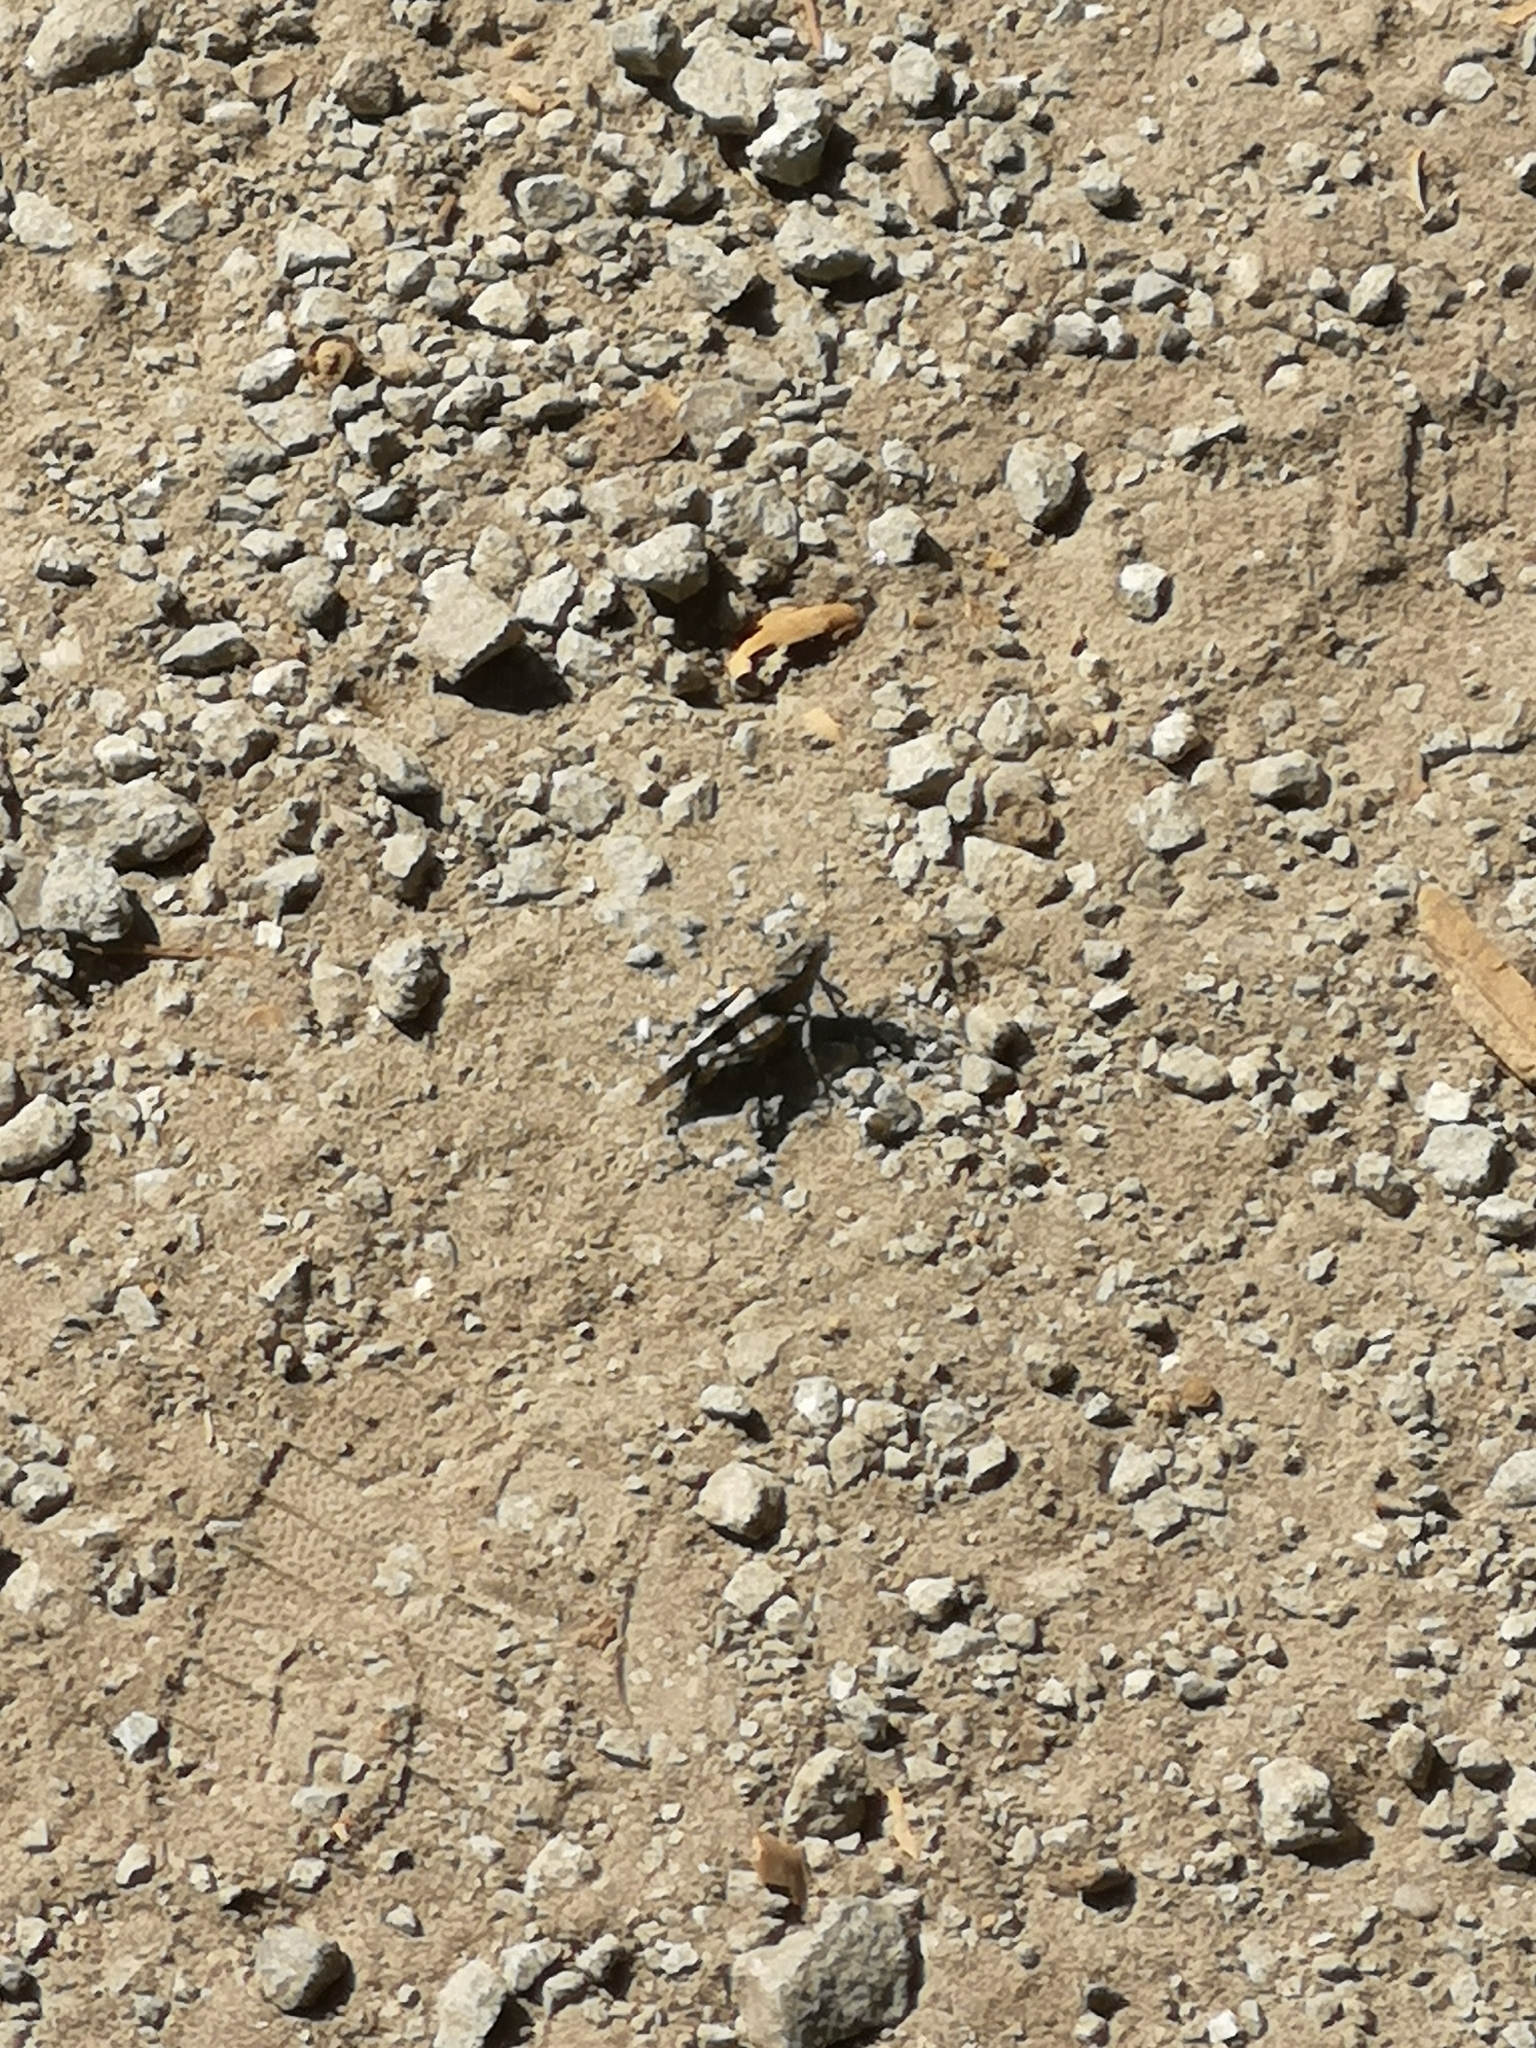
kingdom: Animalia
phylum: Arthropoda
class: Insecta
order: Orthoptera
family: Acrididae
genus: Oedipoda
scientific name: Oedipoda caerulescens
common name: Blue-winged grasshopper
